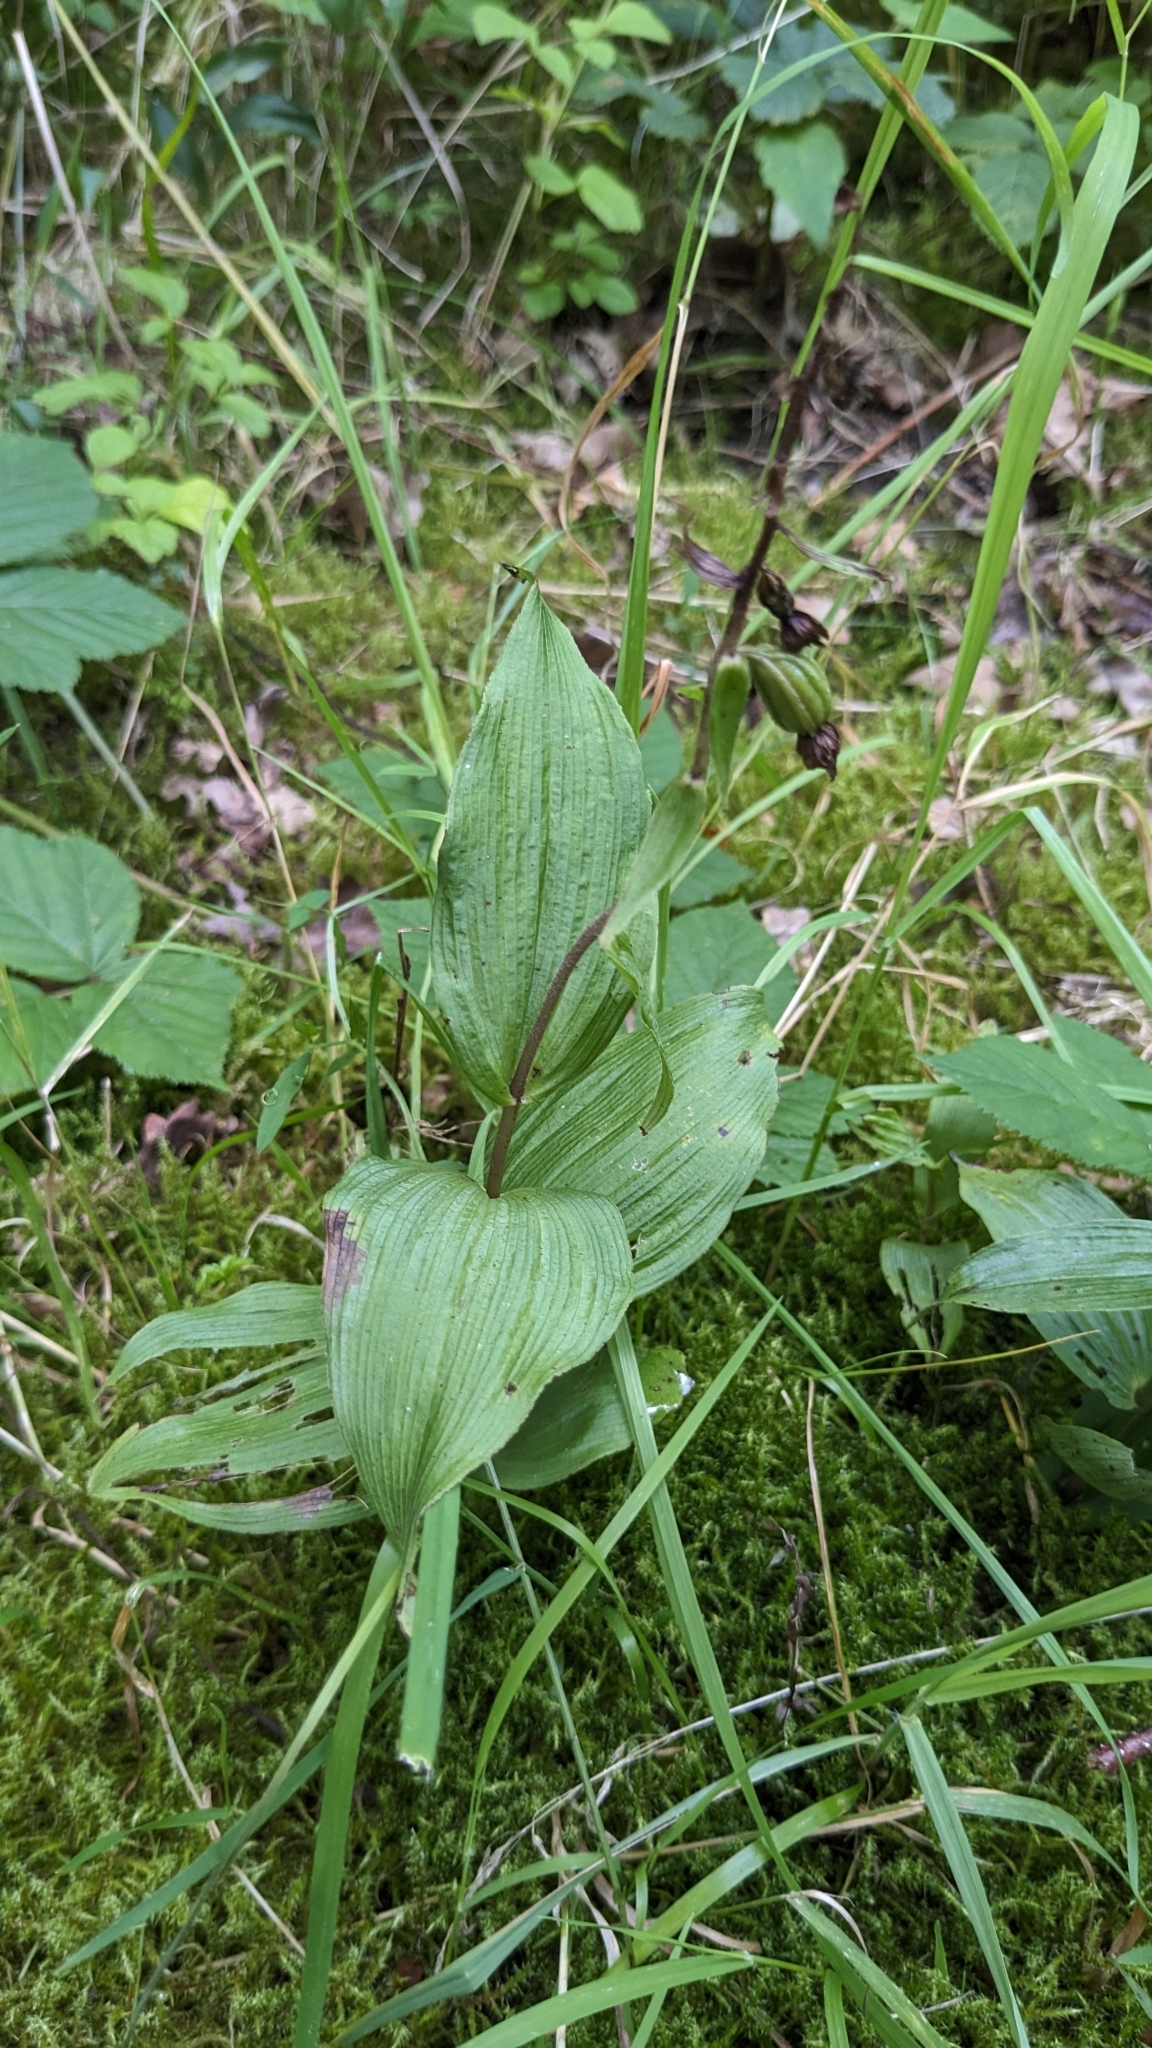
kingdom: Plantae
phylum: Tracheophyta
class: Liliopsida
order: Asparagales
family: Orchidaceae
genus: Epipactis
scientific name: Epipactis helleborine
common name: Broad-leaved helleborine
